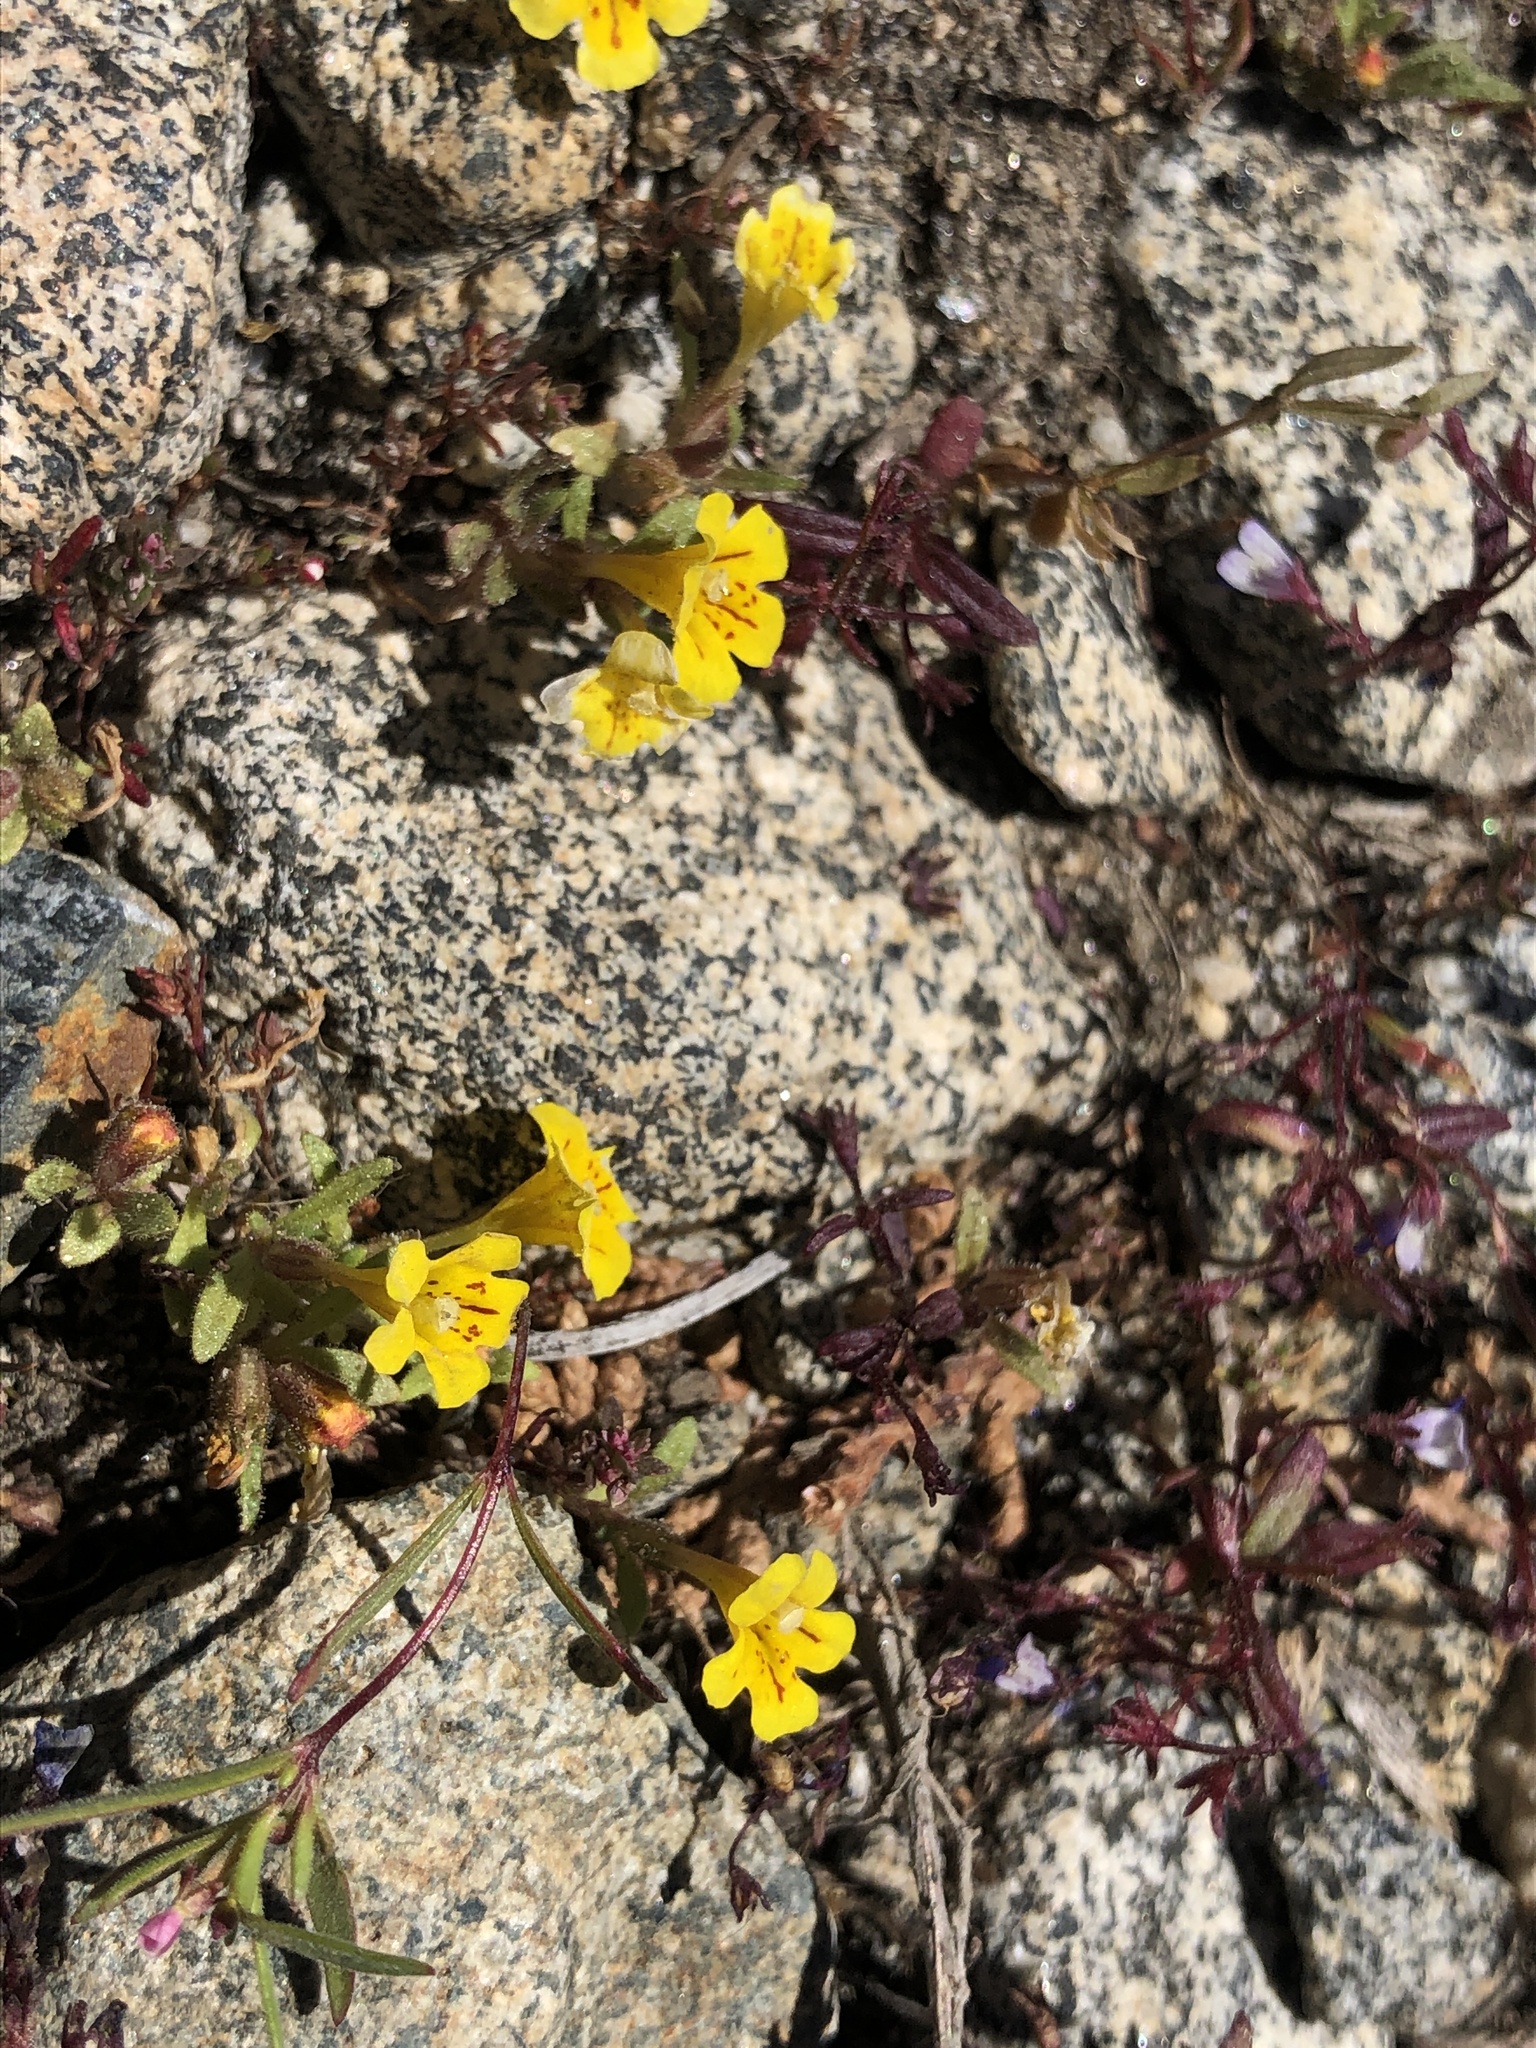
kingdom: Plantae
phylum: Tracheophyta
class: Magnoliopsida
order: Lamiales
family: Phrymaceae
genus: Diplacus
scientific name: Diplacus mephiticus
